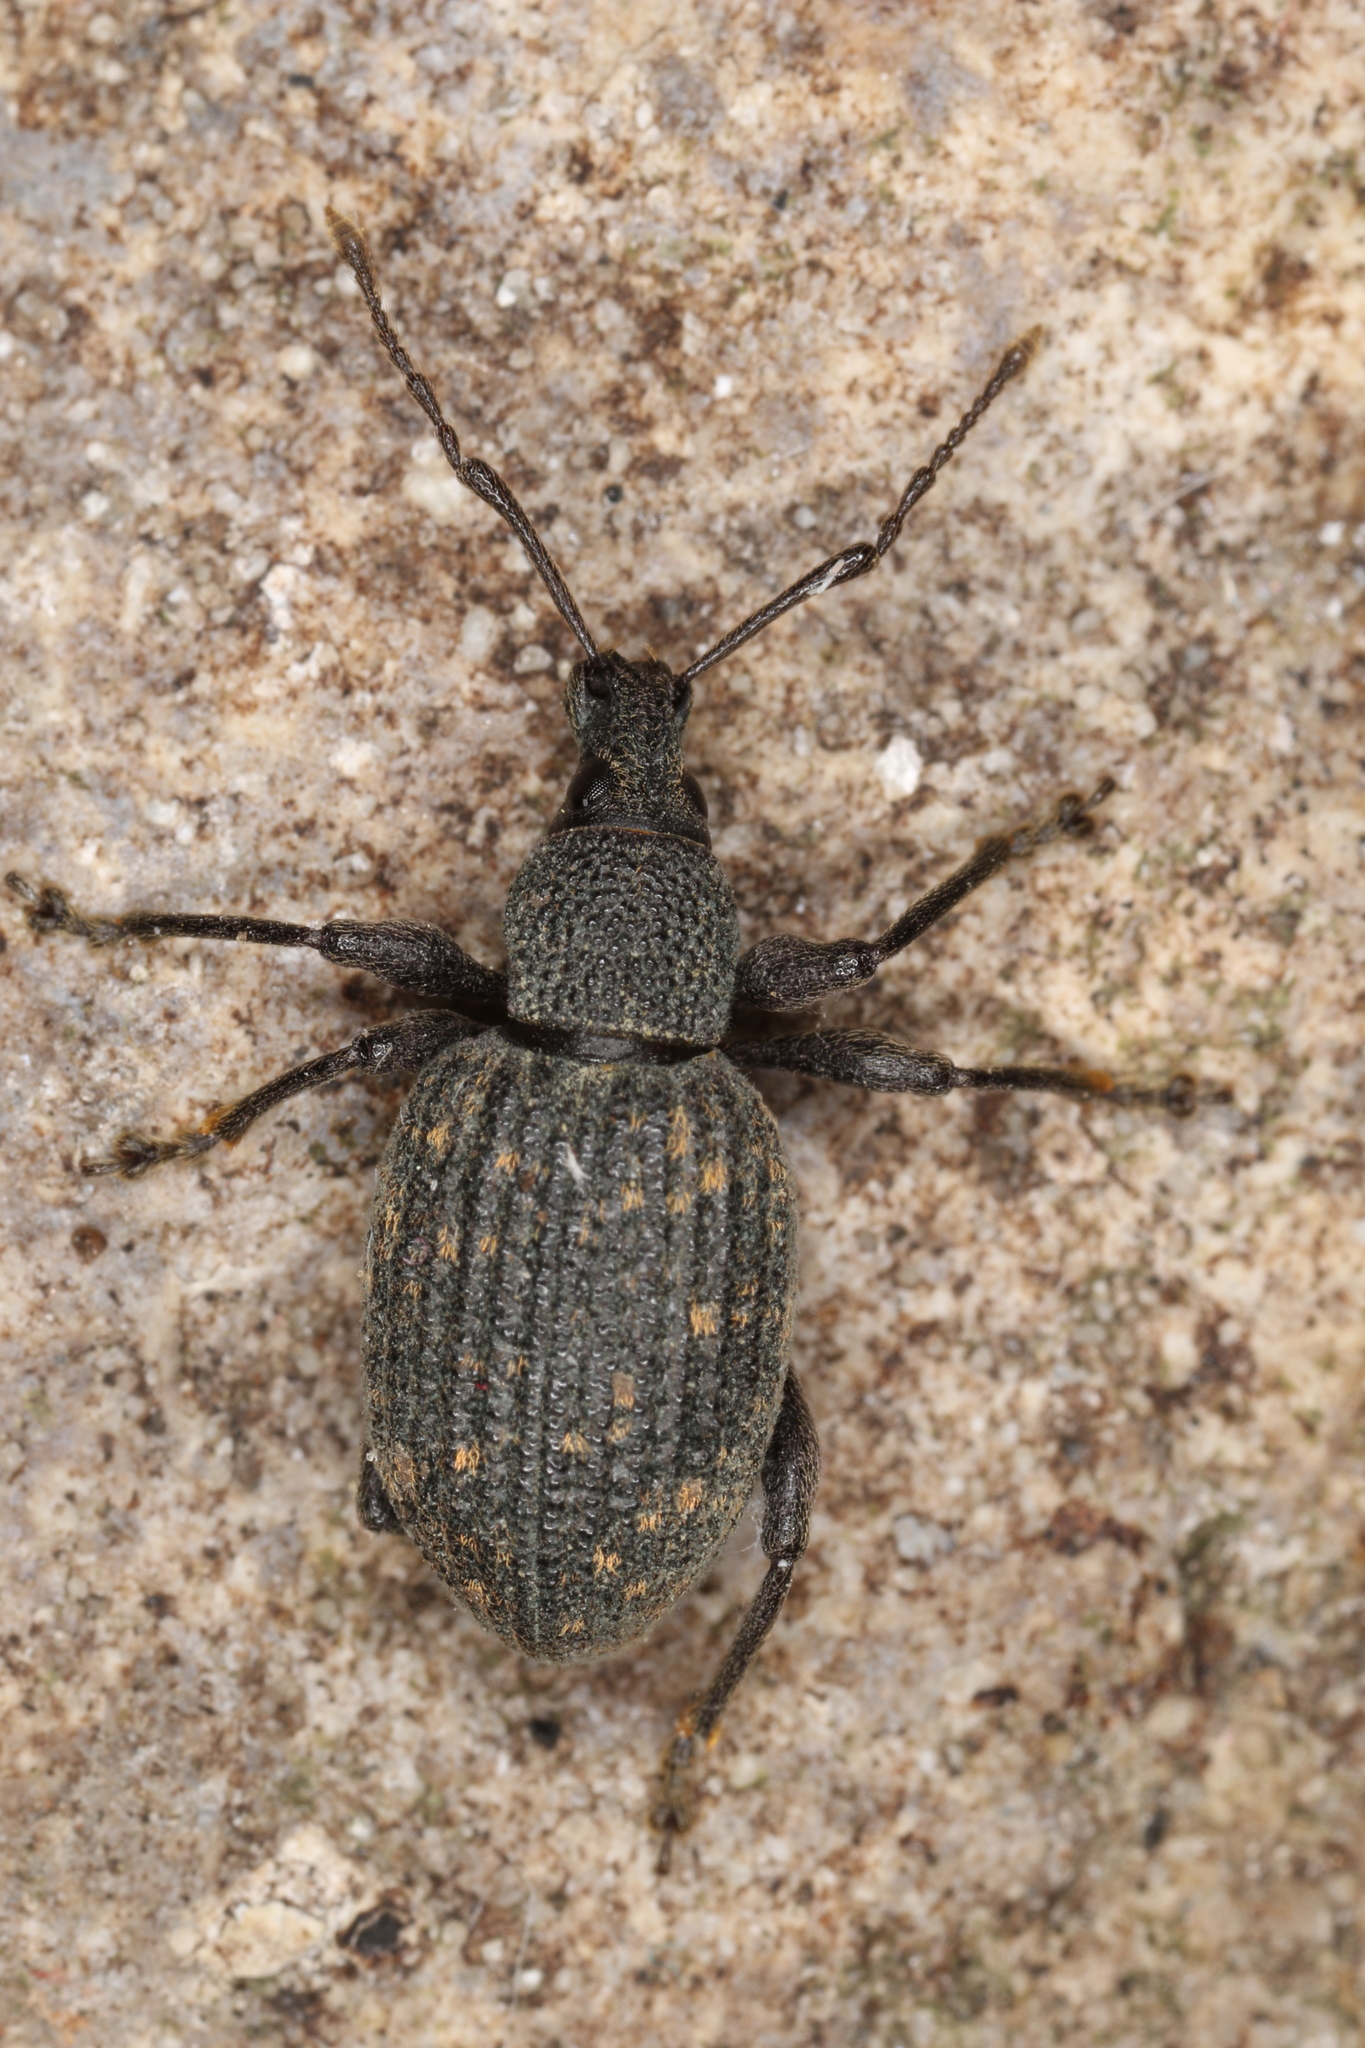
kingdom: Animalia
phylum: Arthropoda
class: Insecta
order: Coleoptera
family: Curculionidae
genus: Otiorhynchus
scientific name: Otiorhynchus sulcatus
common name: Black vine weevil
